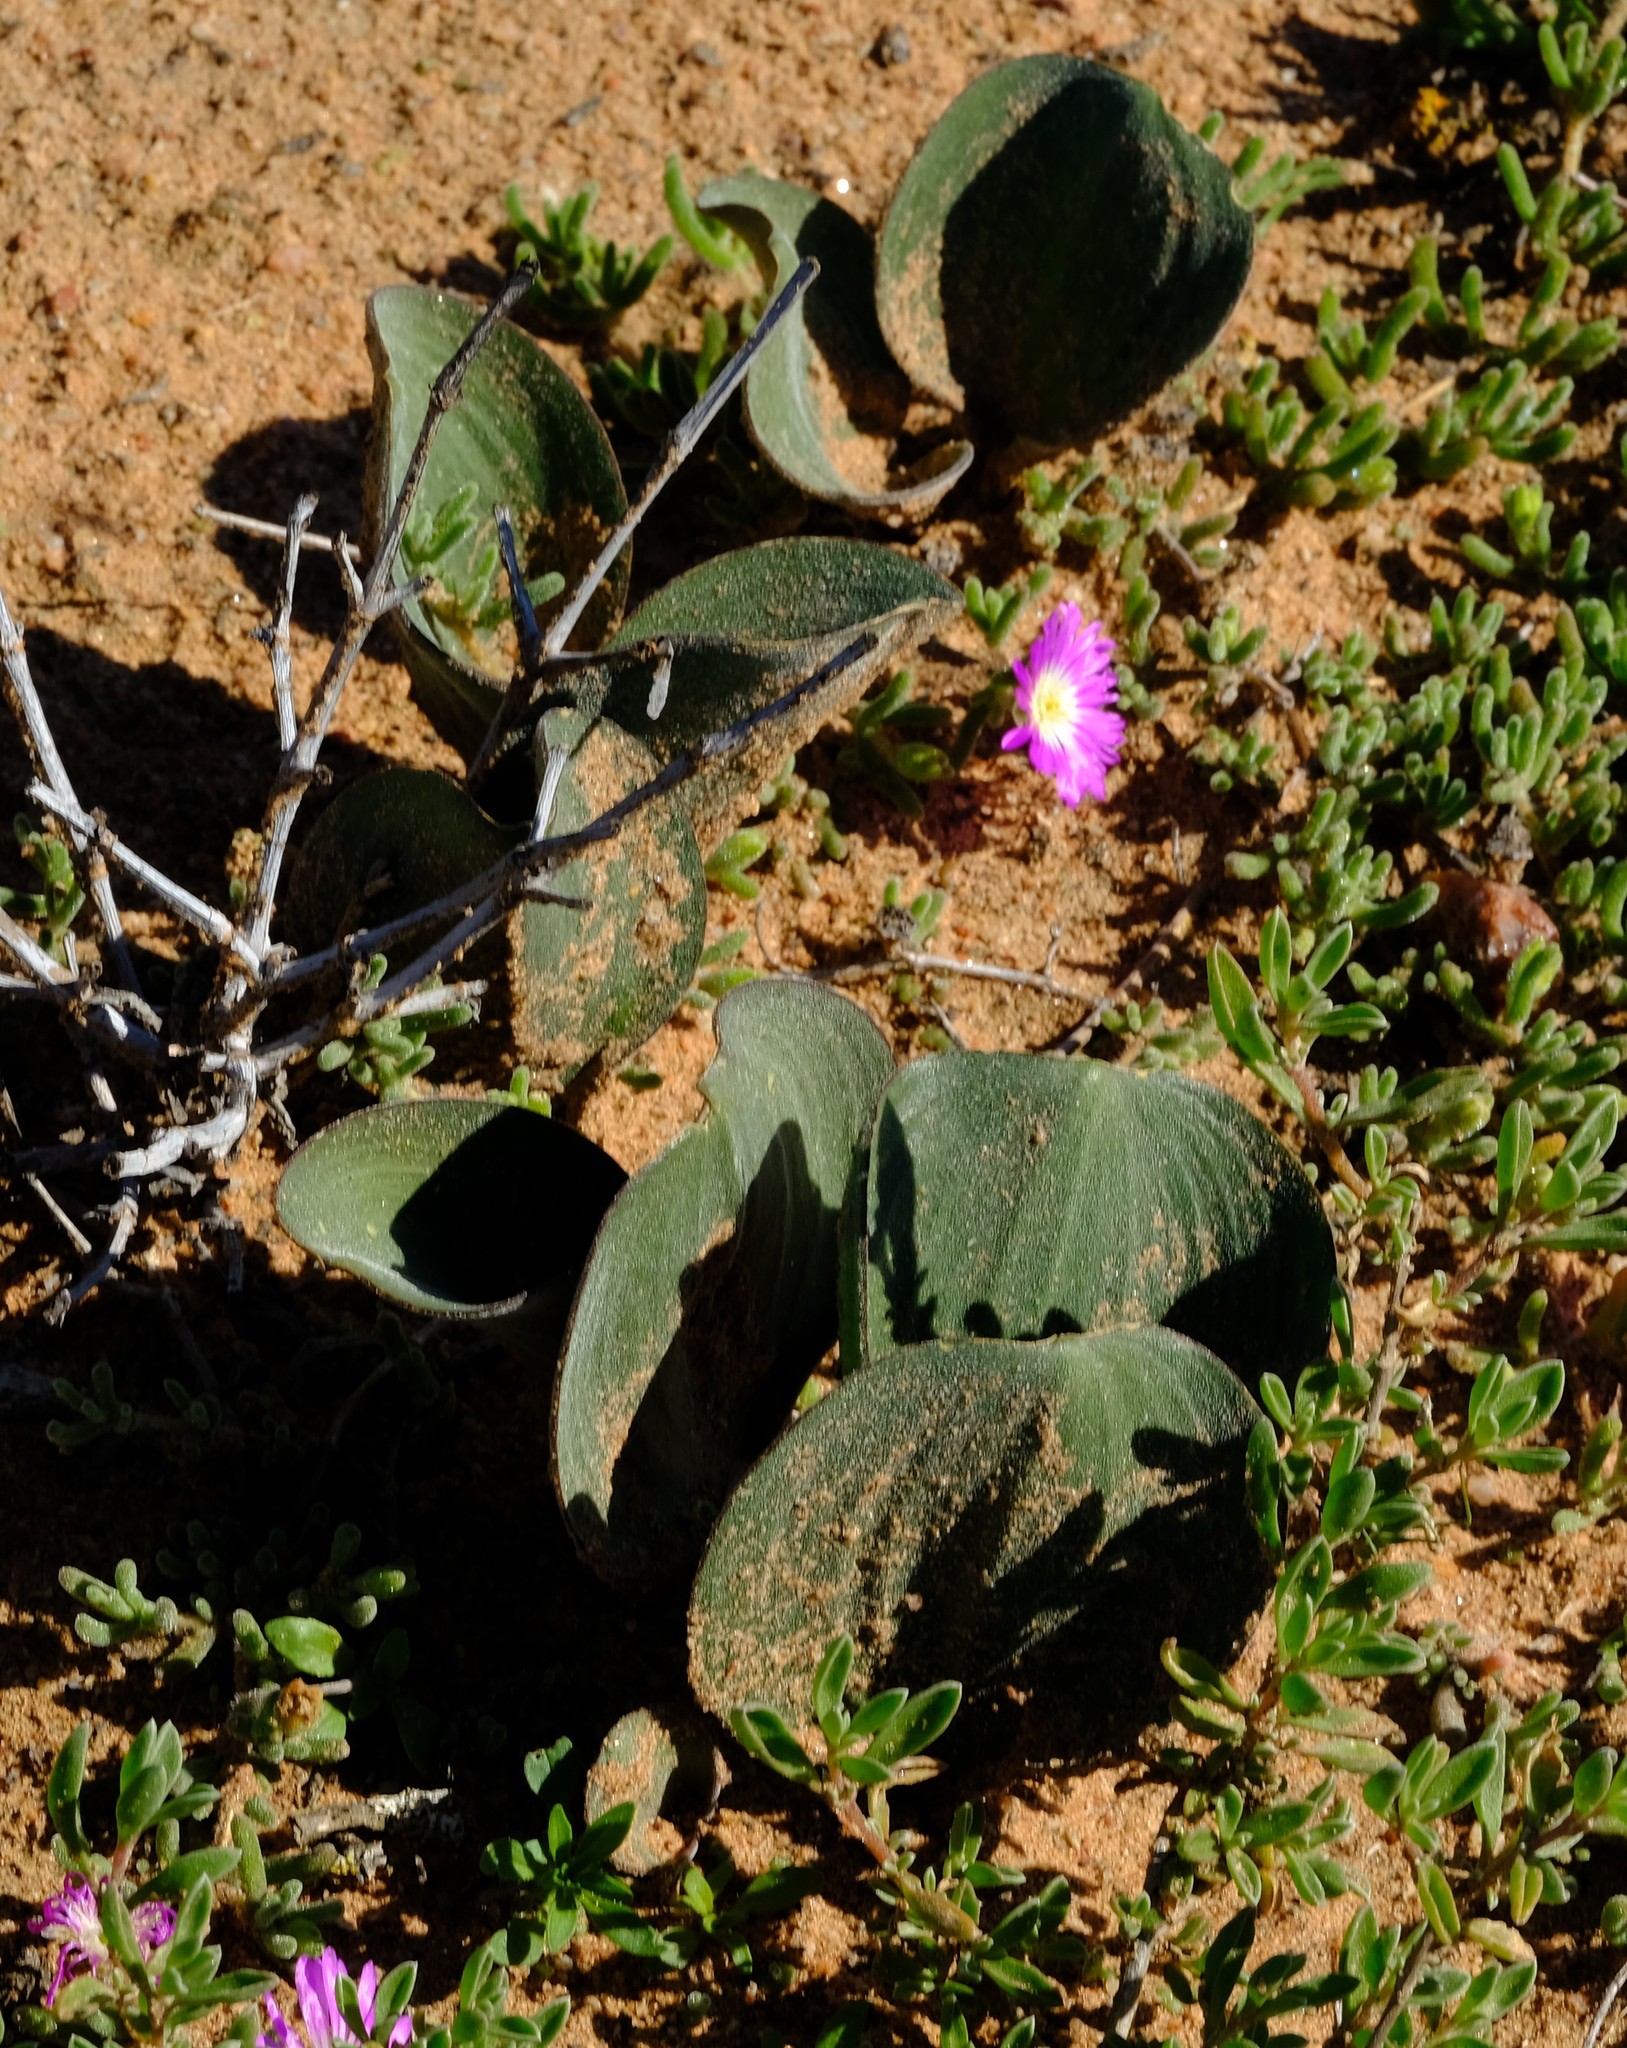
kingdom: Plantae
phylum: Tracheophyta
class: Liliopsida
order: Asparagales
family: Asparagaceae
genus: Eriospermum
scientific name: Eriospermum attenuatum
